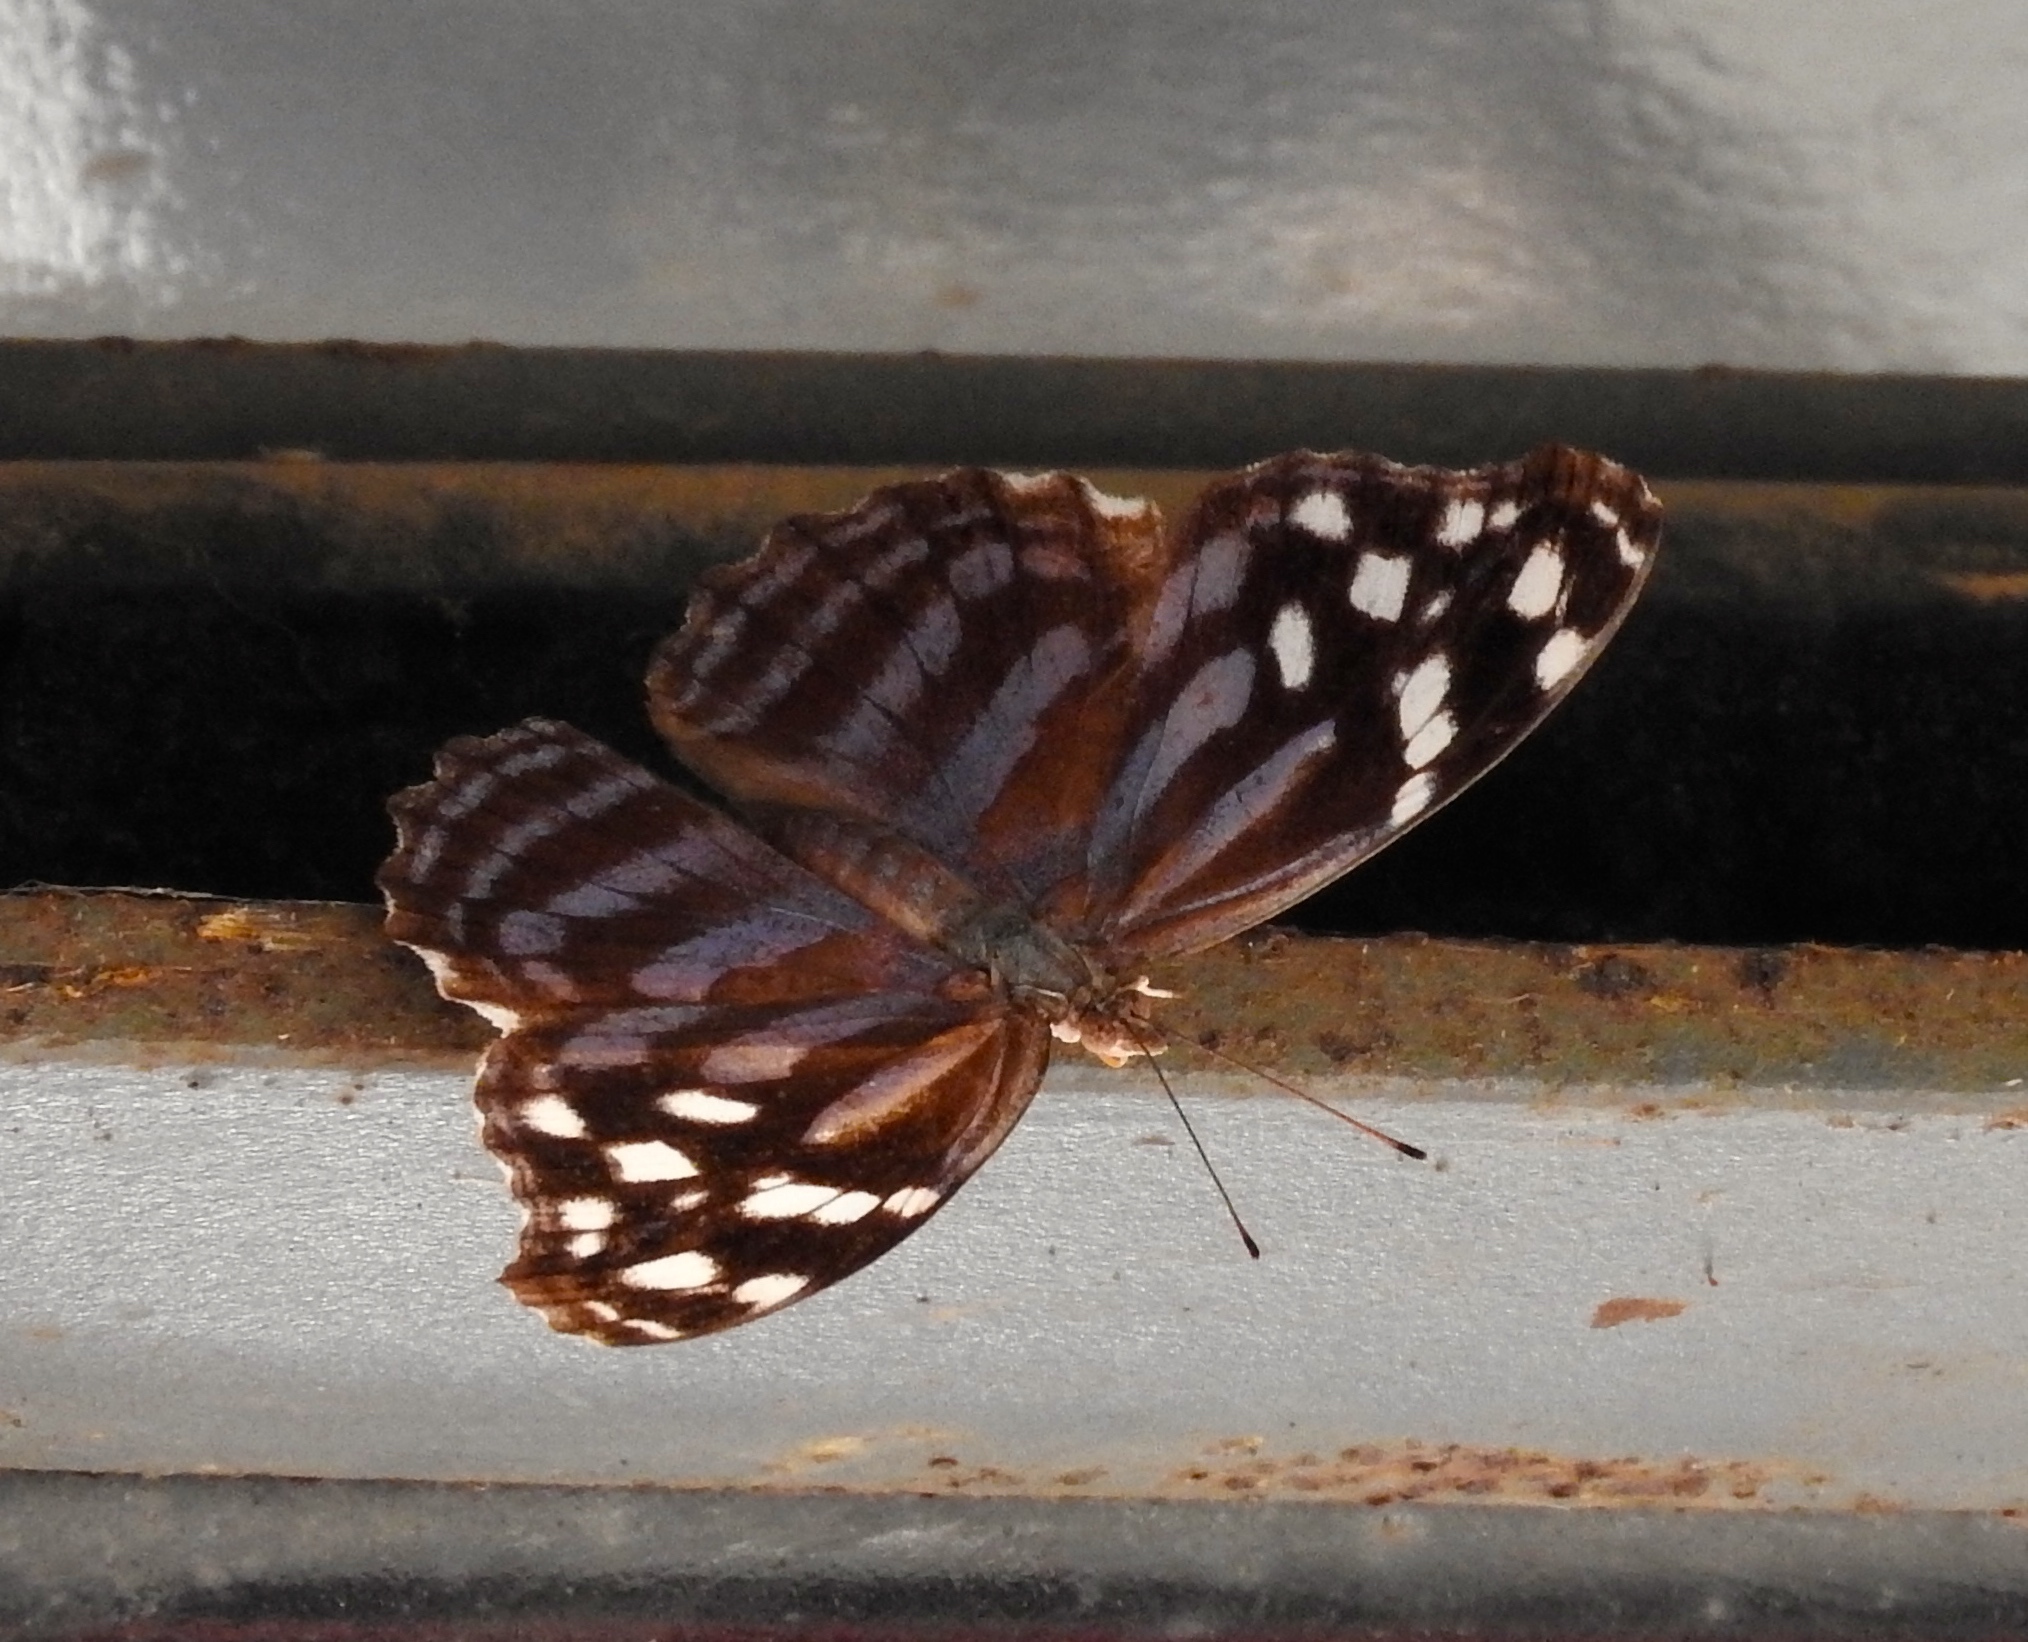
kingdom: Animalia
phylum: Arthropoda
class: Insecta
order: Lepidoptera
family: Nymphalidae
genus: Myscelia
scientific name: Myscelia ethusa
